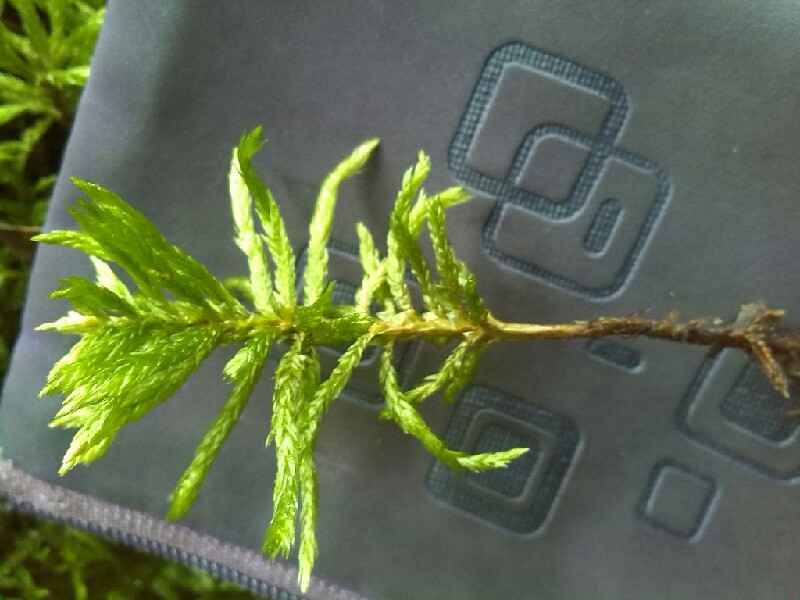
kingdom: Plantae
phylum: Bryophyta
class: Bryopsida
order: Hypnales
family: Climaciaceae
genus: Climacium
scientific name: Climacium dendroides
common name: Northern tree moss
